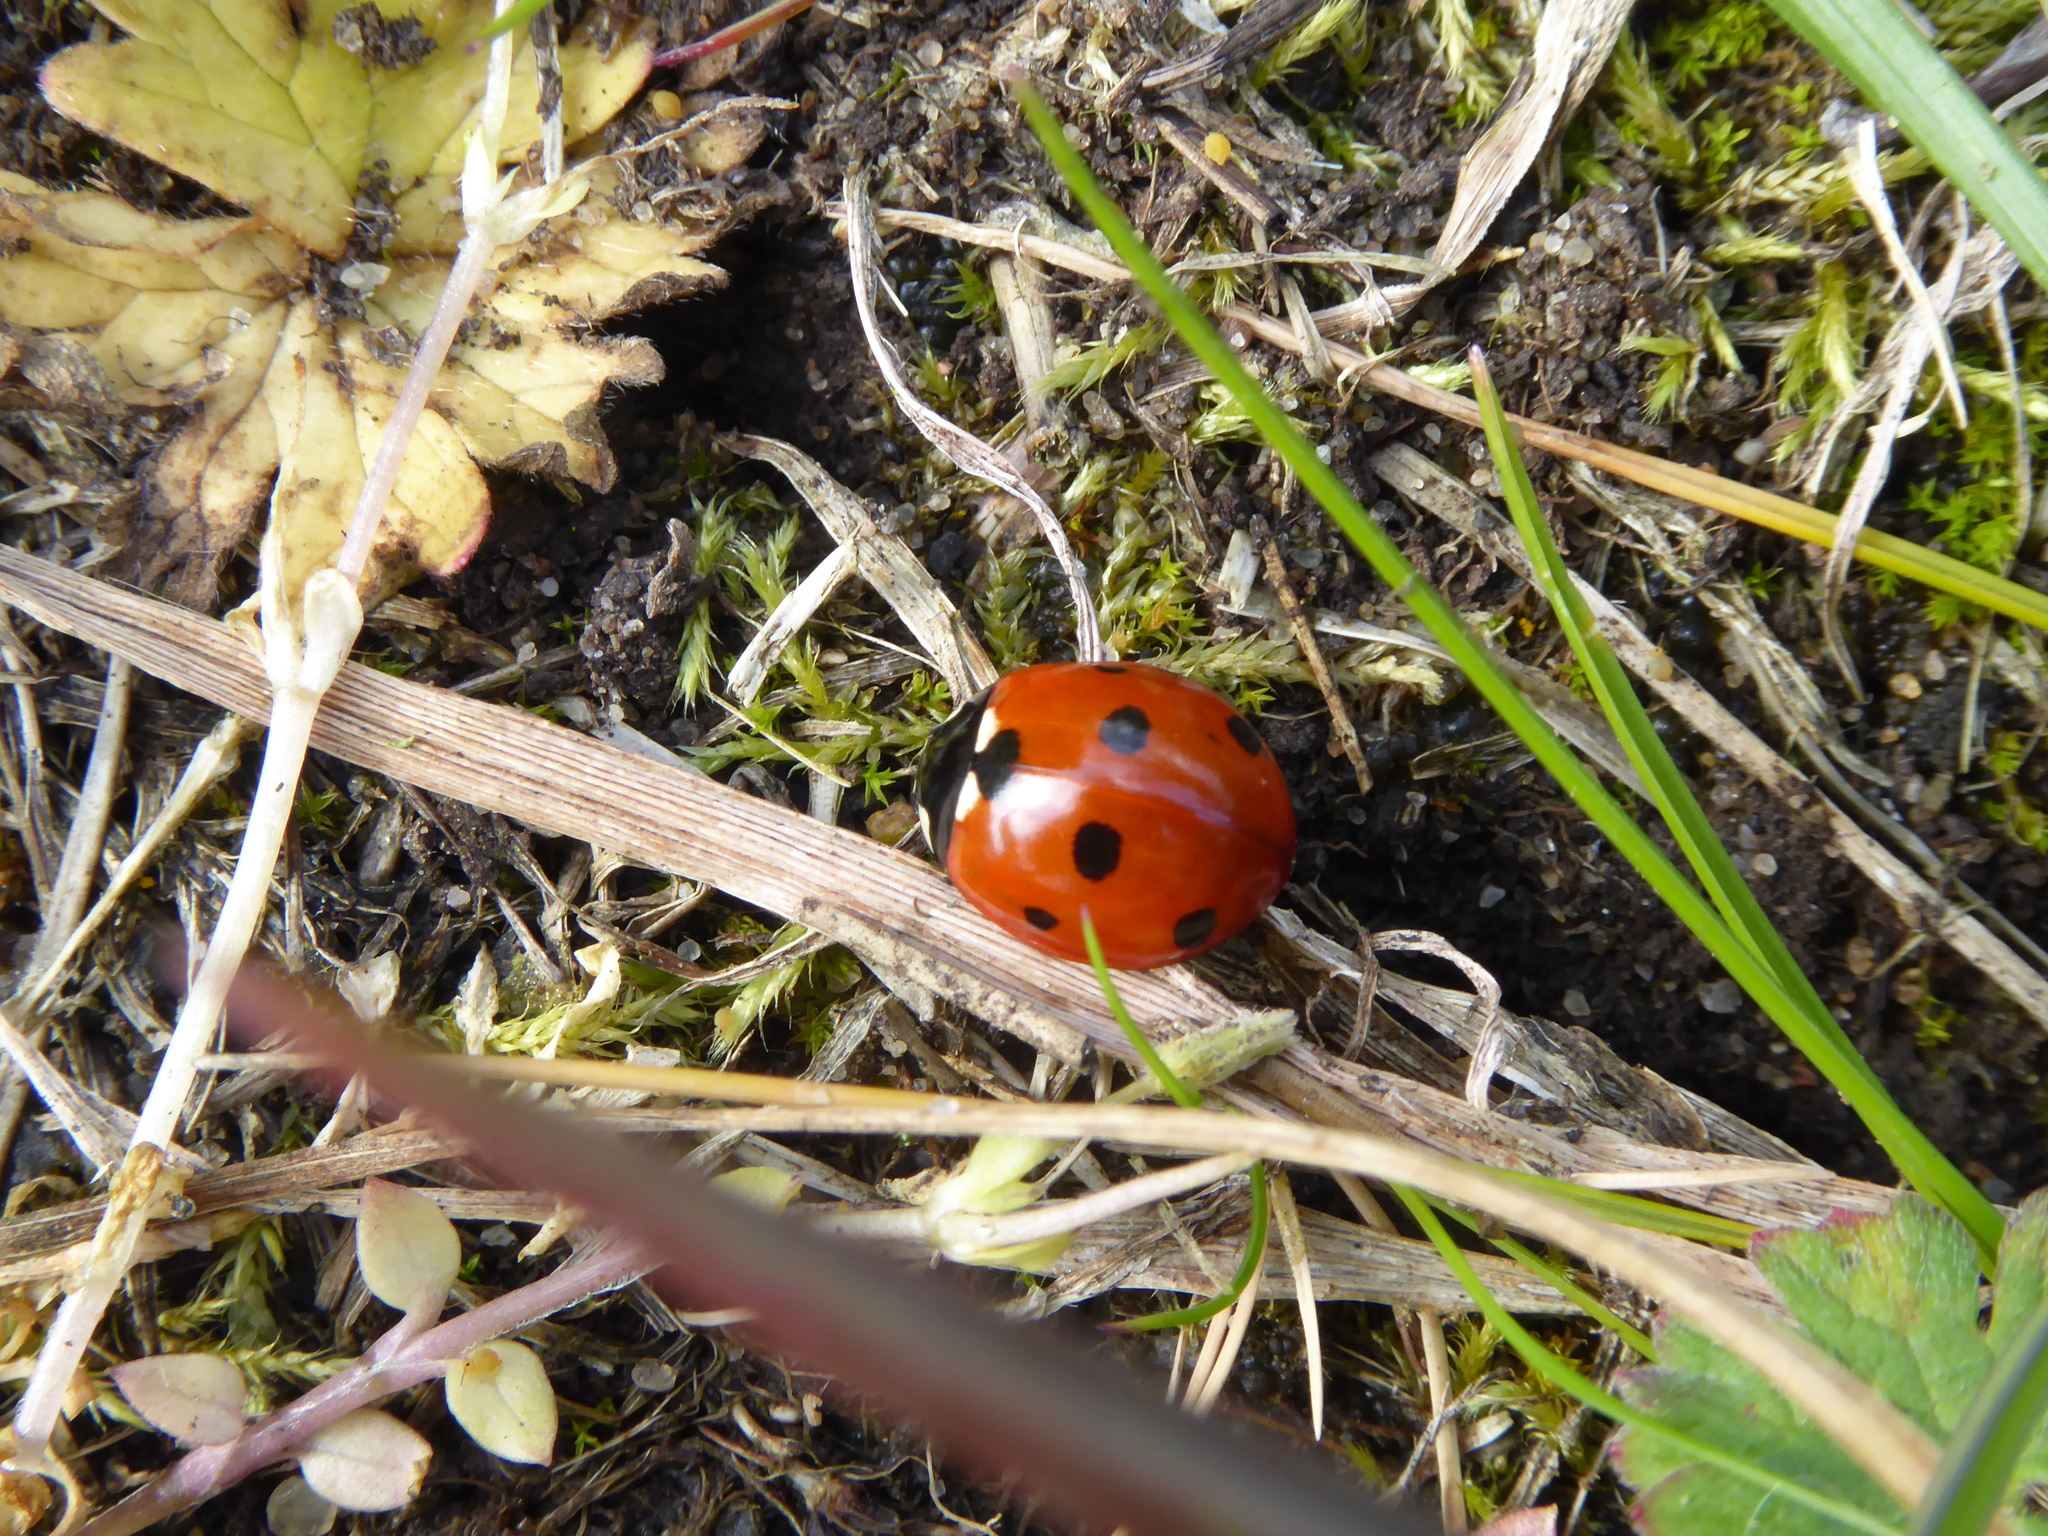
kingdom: Animalia
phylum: Arthropoda
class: Insecta
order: Coleoptera
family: Coccinellidae
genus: Coccinella
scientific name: Coccinella septempunctata
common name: Sevenspotted lady beetle
